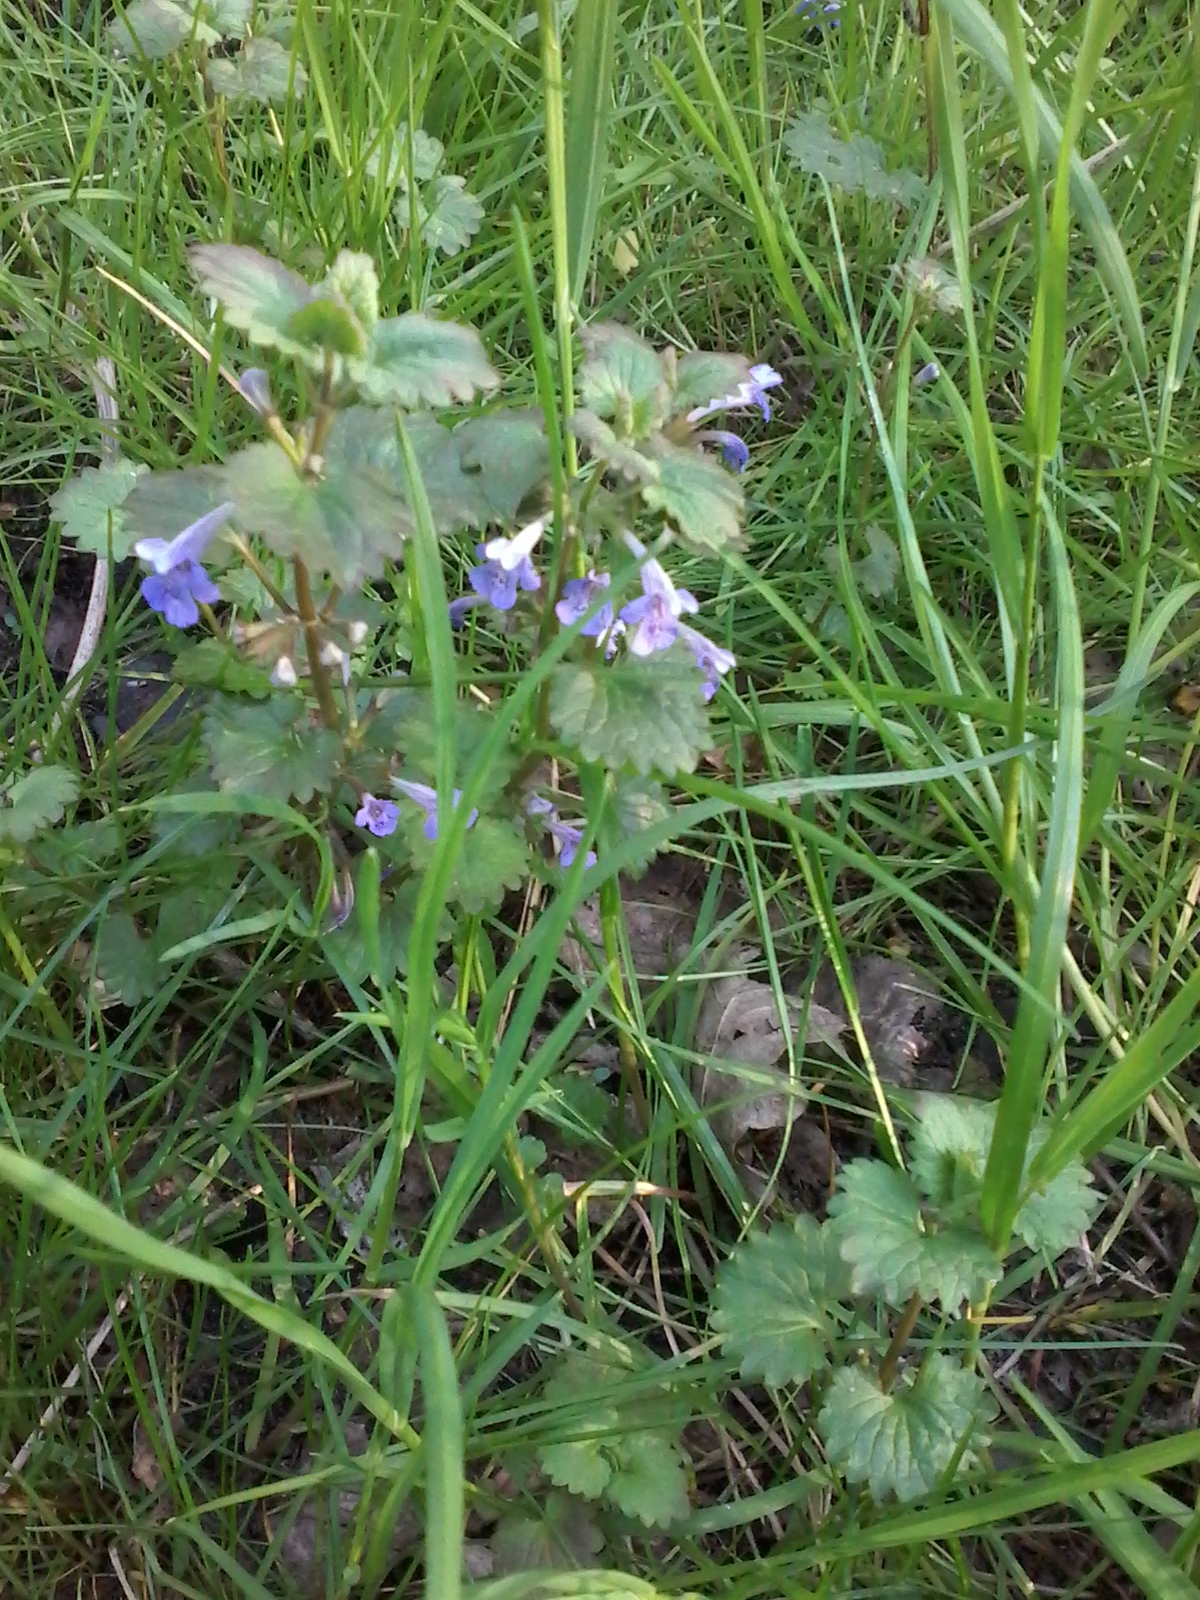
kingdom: Plantae
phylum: Tracheophyta
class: Magnoliopsida
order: Lamiales
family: Lamiaceae
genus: Glechoma
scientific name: Glechoma hederacea
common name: Ground ivy
